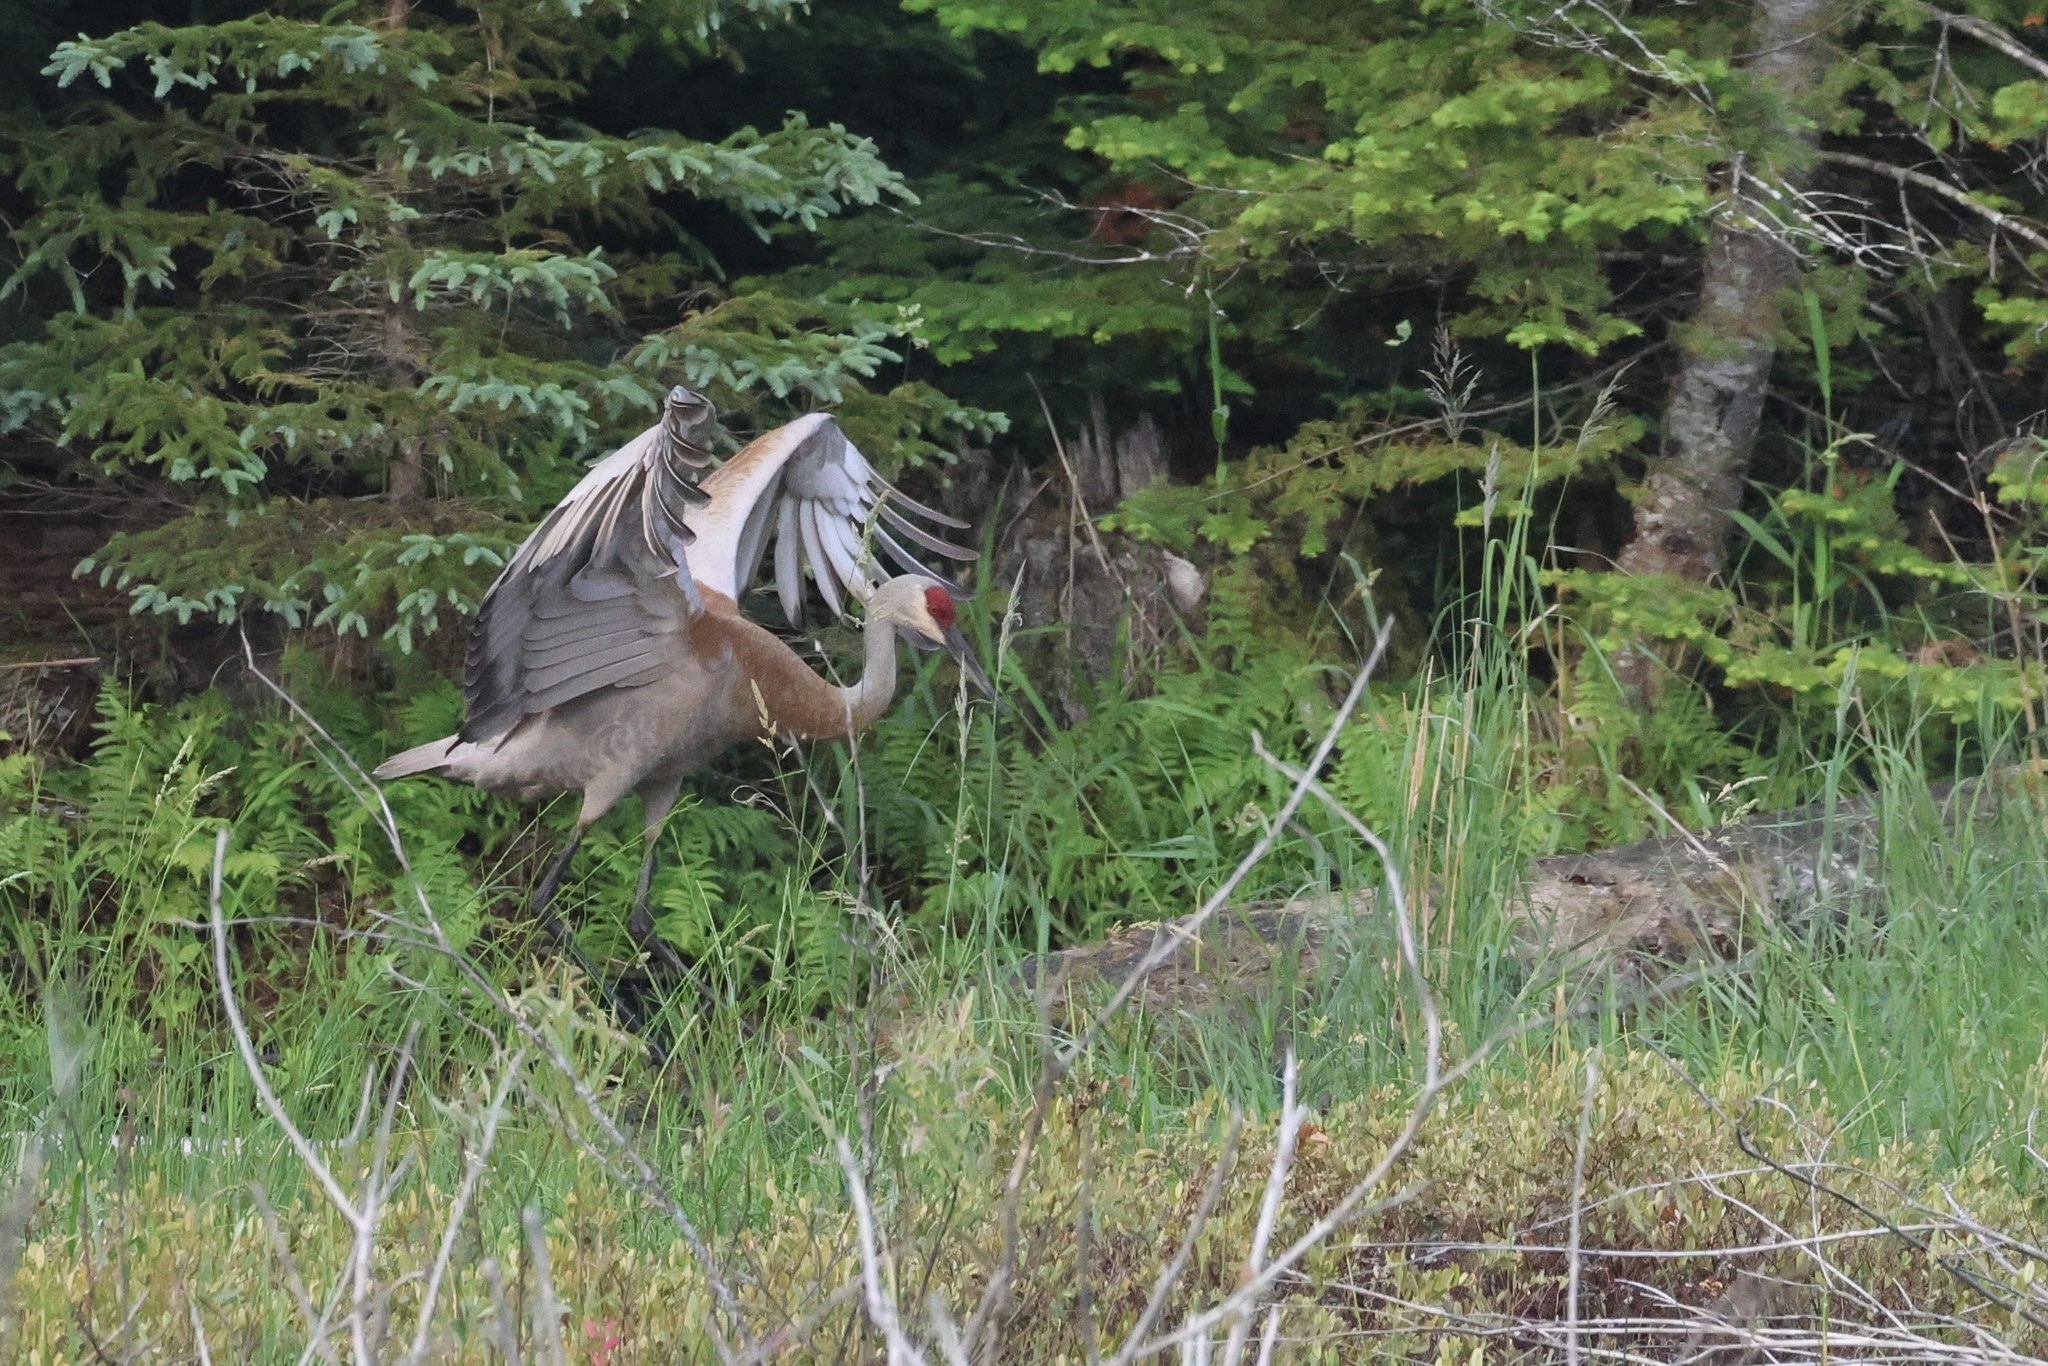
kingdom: Animalia
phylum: Chordata
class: Aves
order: Gruiformes
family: Gruidae
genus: Grus
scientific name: Grus canadensis
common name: Sandhill crane
